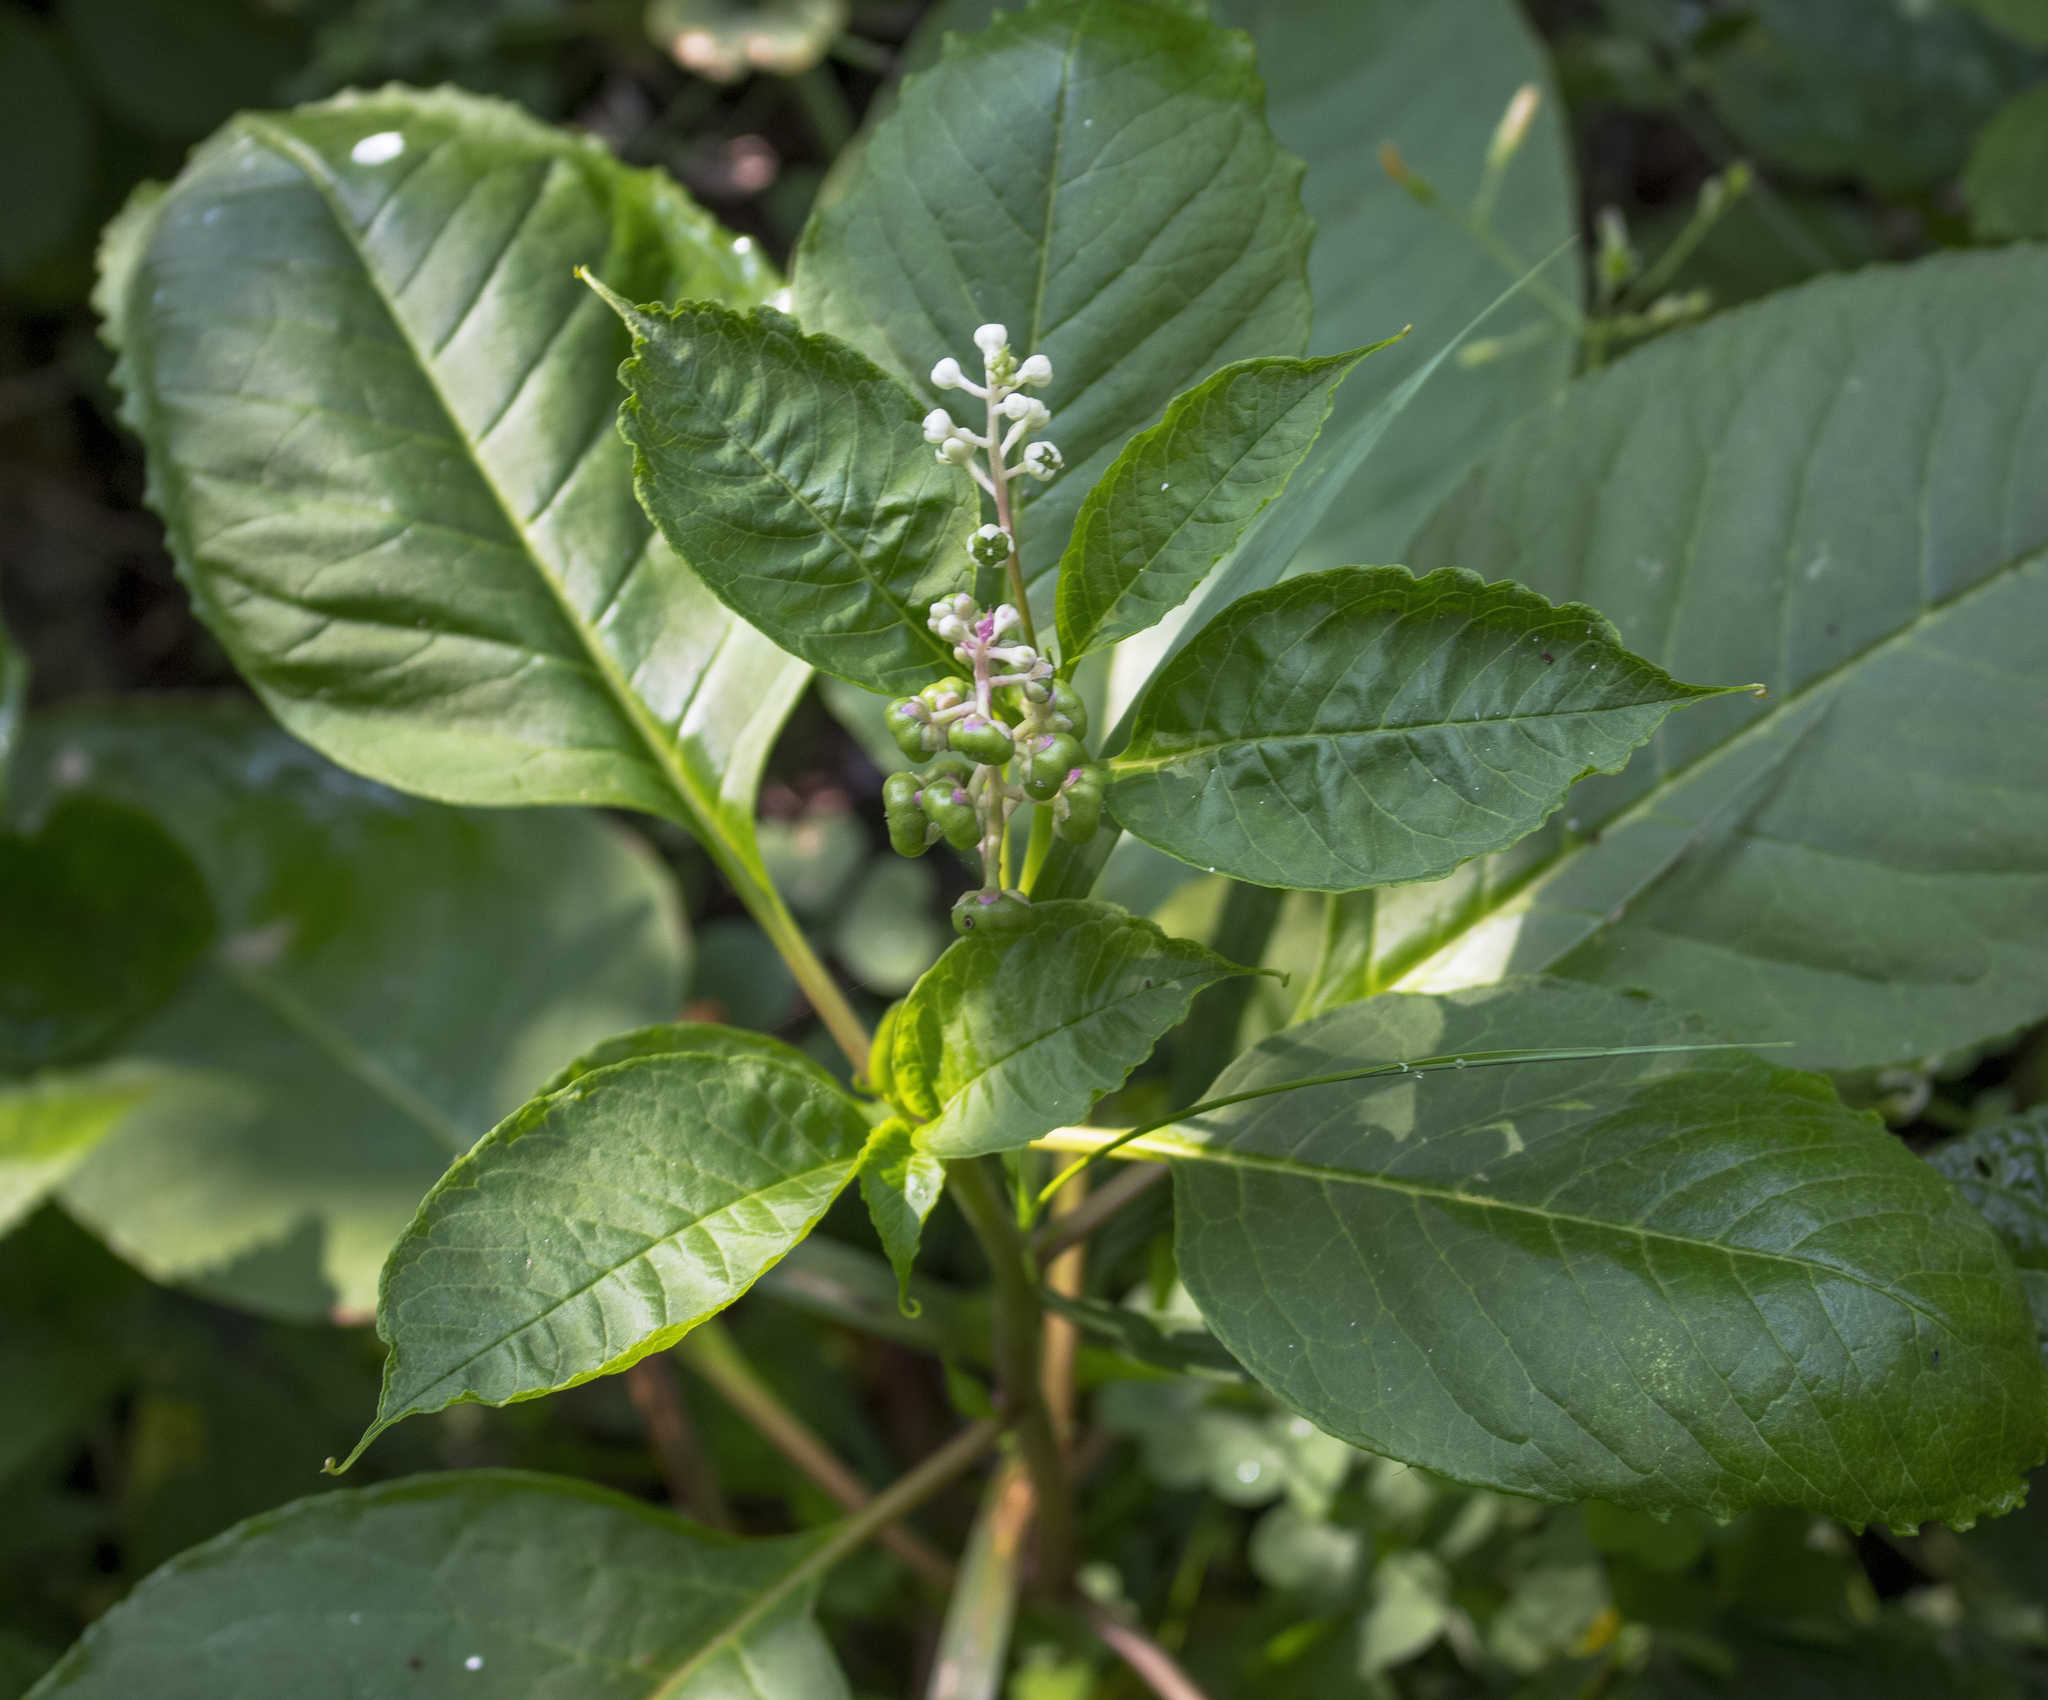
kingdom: Plantae
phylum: Tracheophyta
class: Magnoliopsida
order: Caryophyllales
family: Phytolaccaceae
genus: Phytolacca
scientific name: Phytolacca americana
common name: American pokeweed
